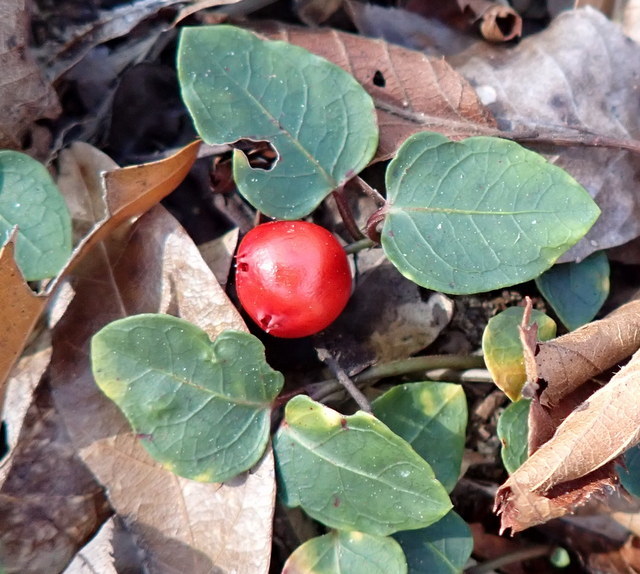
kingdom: Plantae
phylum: Tracheophyta
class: Magnoliopsida
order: Gentianales
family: Rubiaceae
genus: Mitchella
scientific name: Mitchella repens
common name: Partridge-berry
